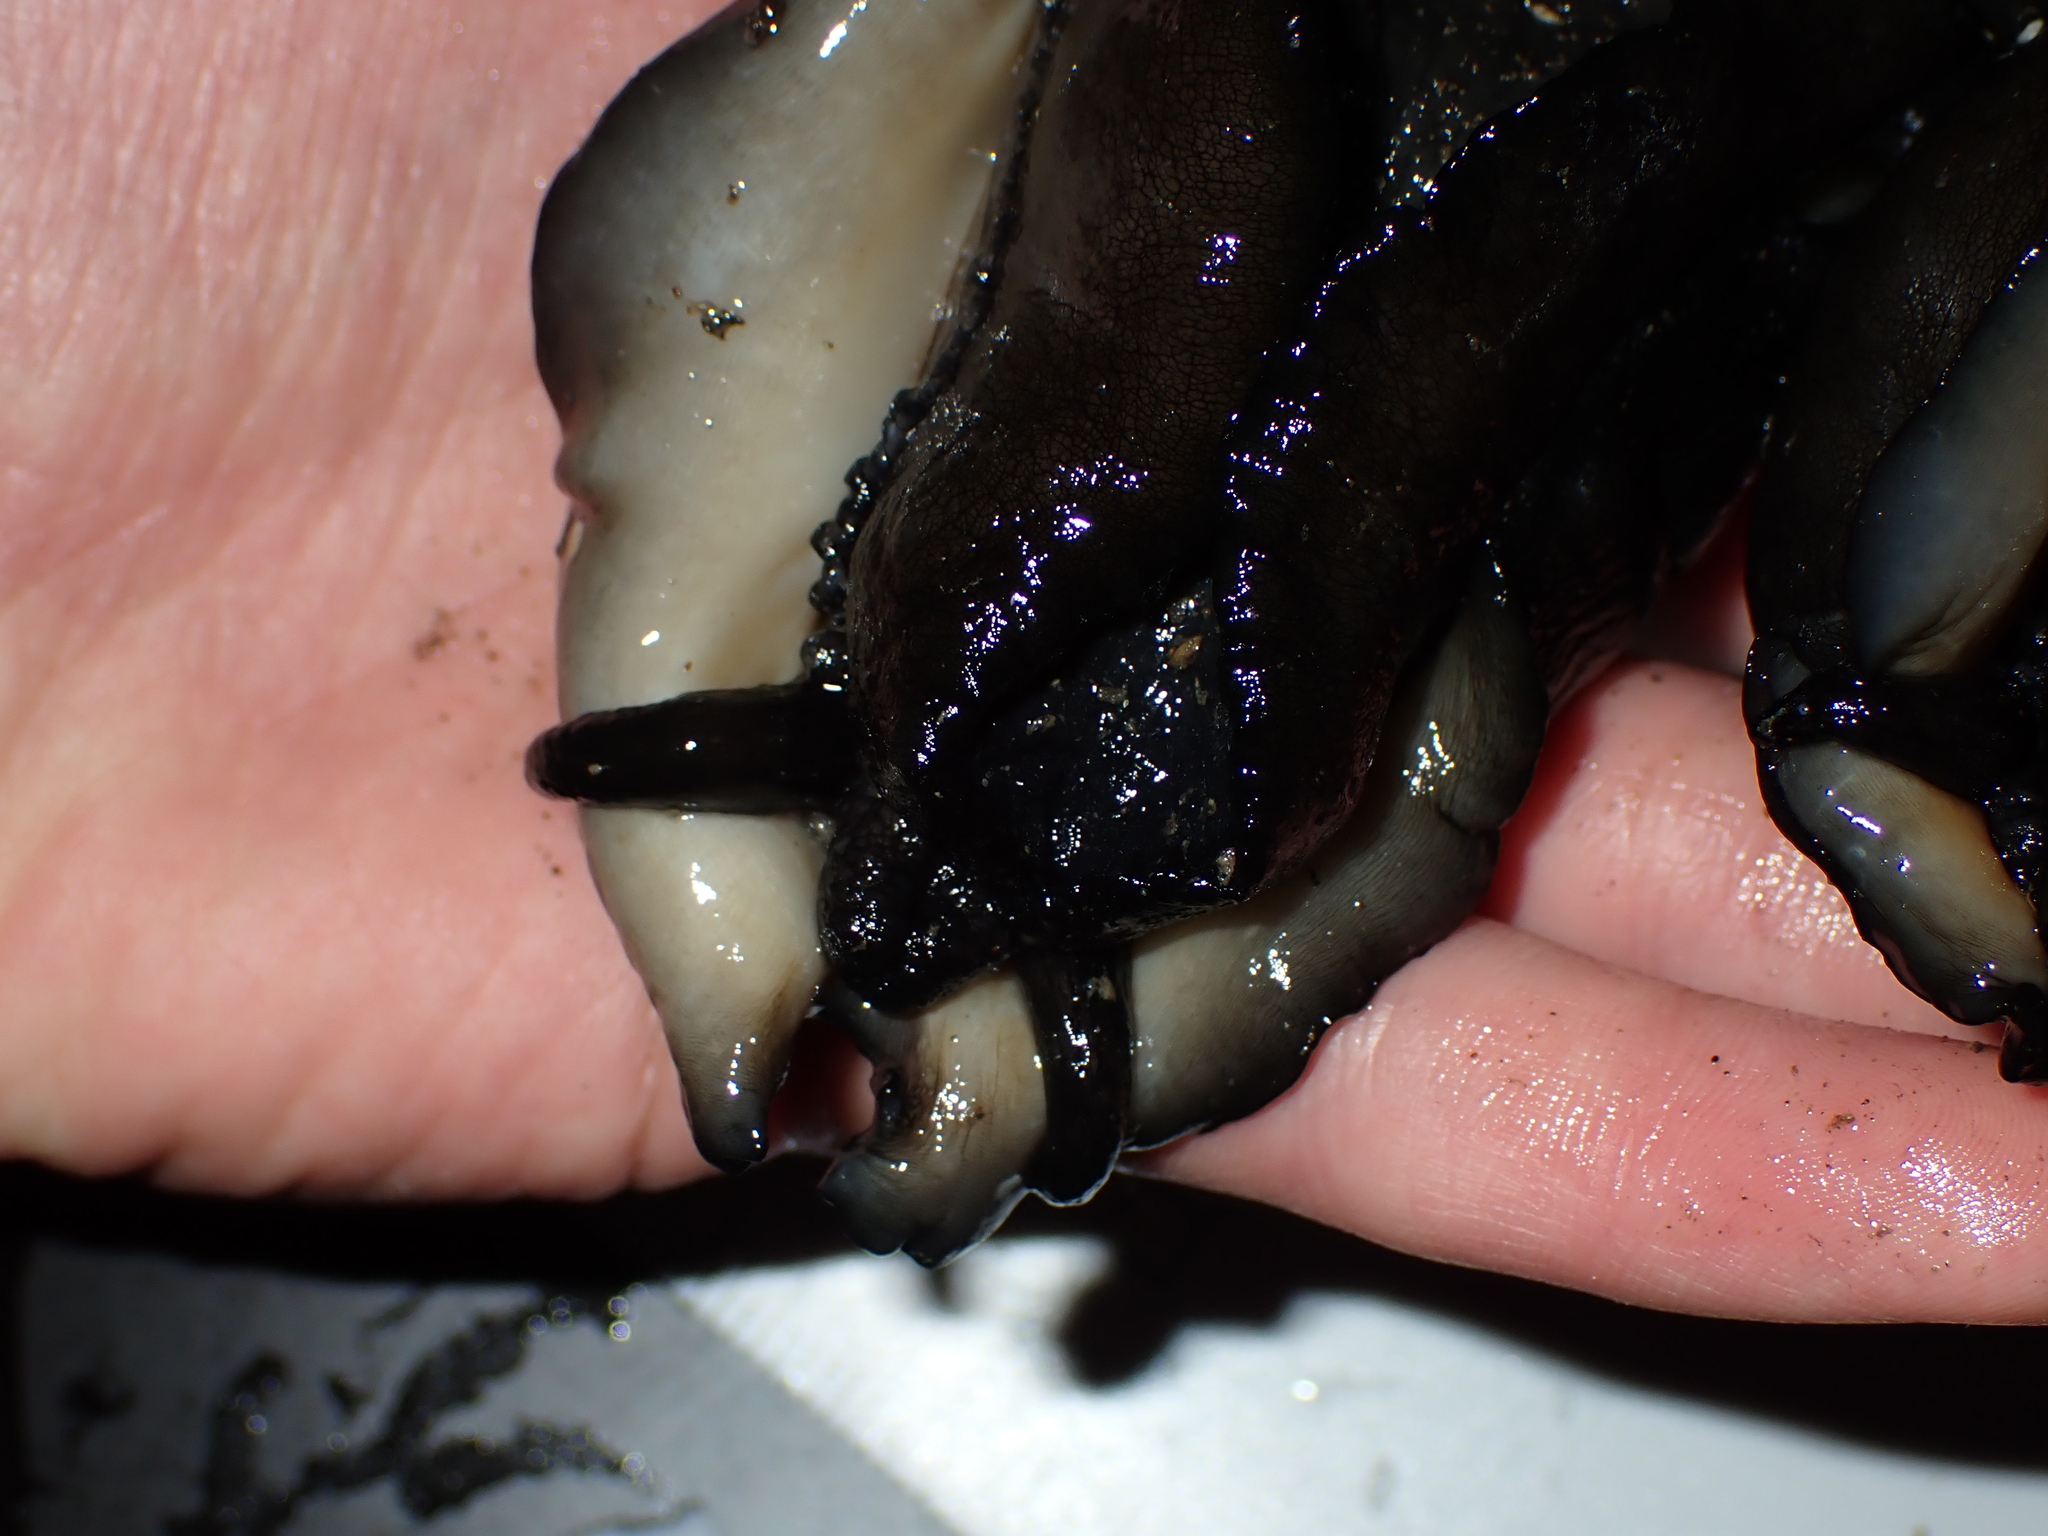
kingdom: Animalia
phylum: Mollusca
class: Gastropoda
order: Lepetellida
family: Fissurellidae
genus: Scutus
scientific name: Scutus breviculus
